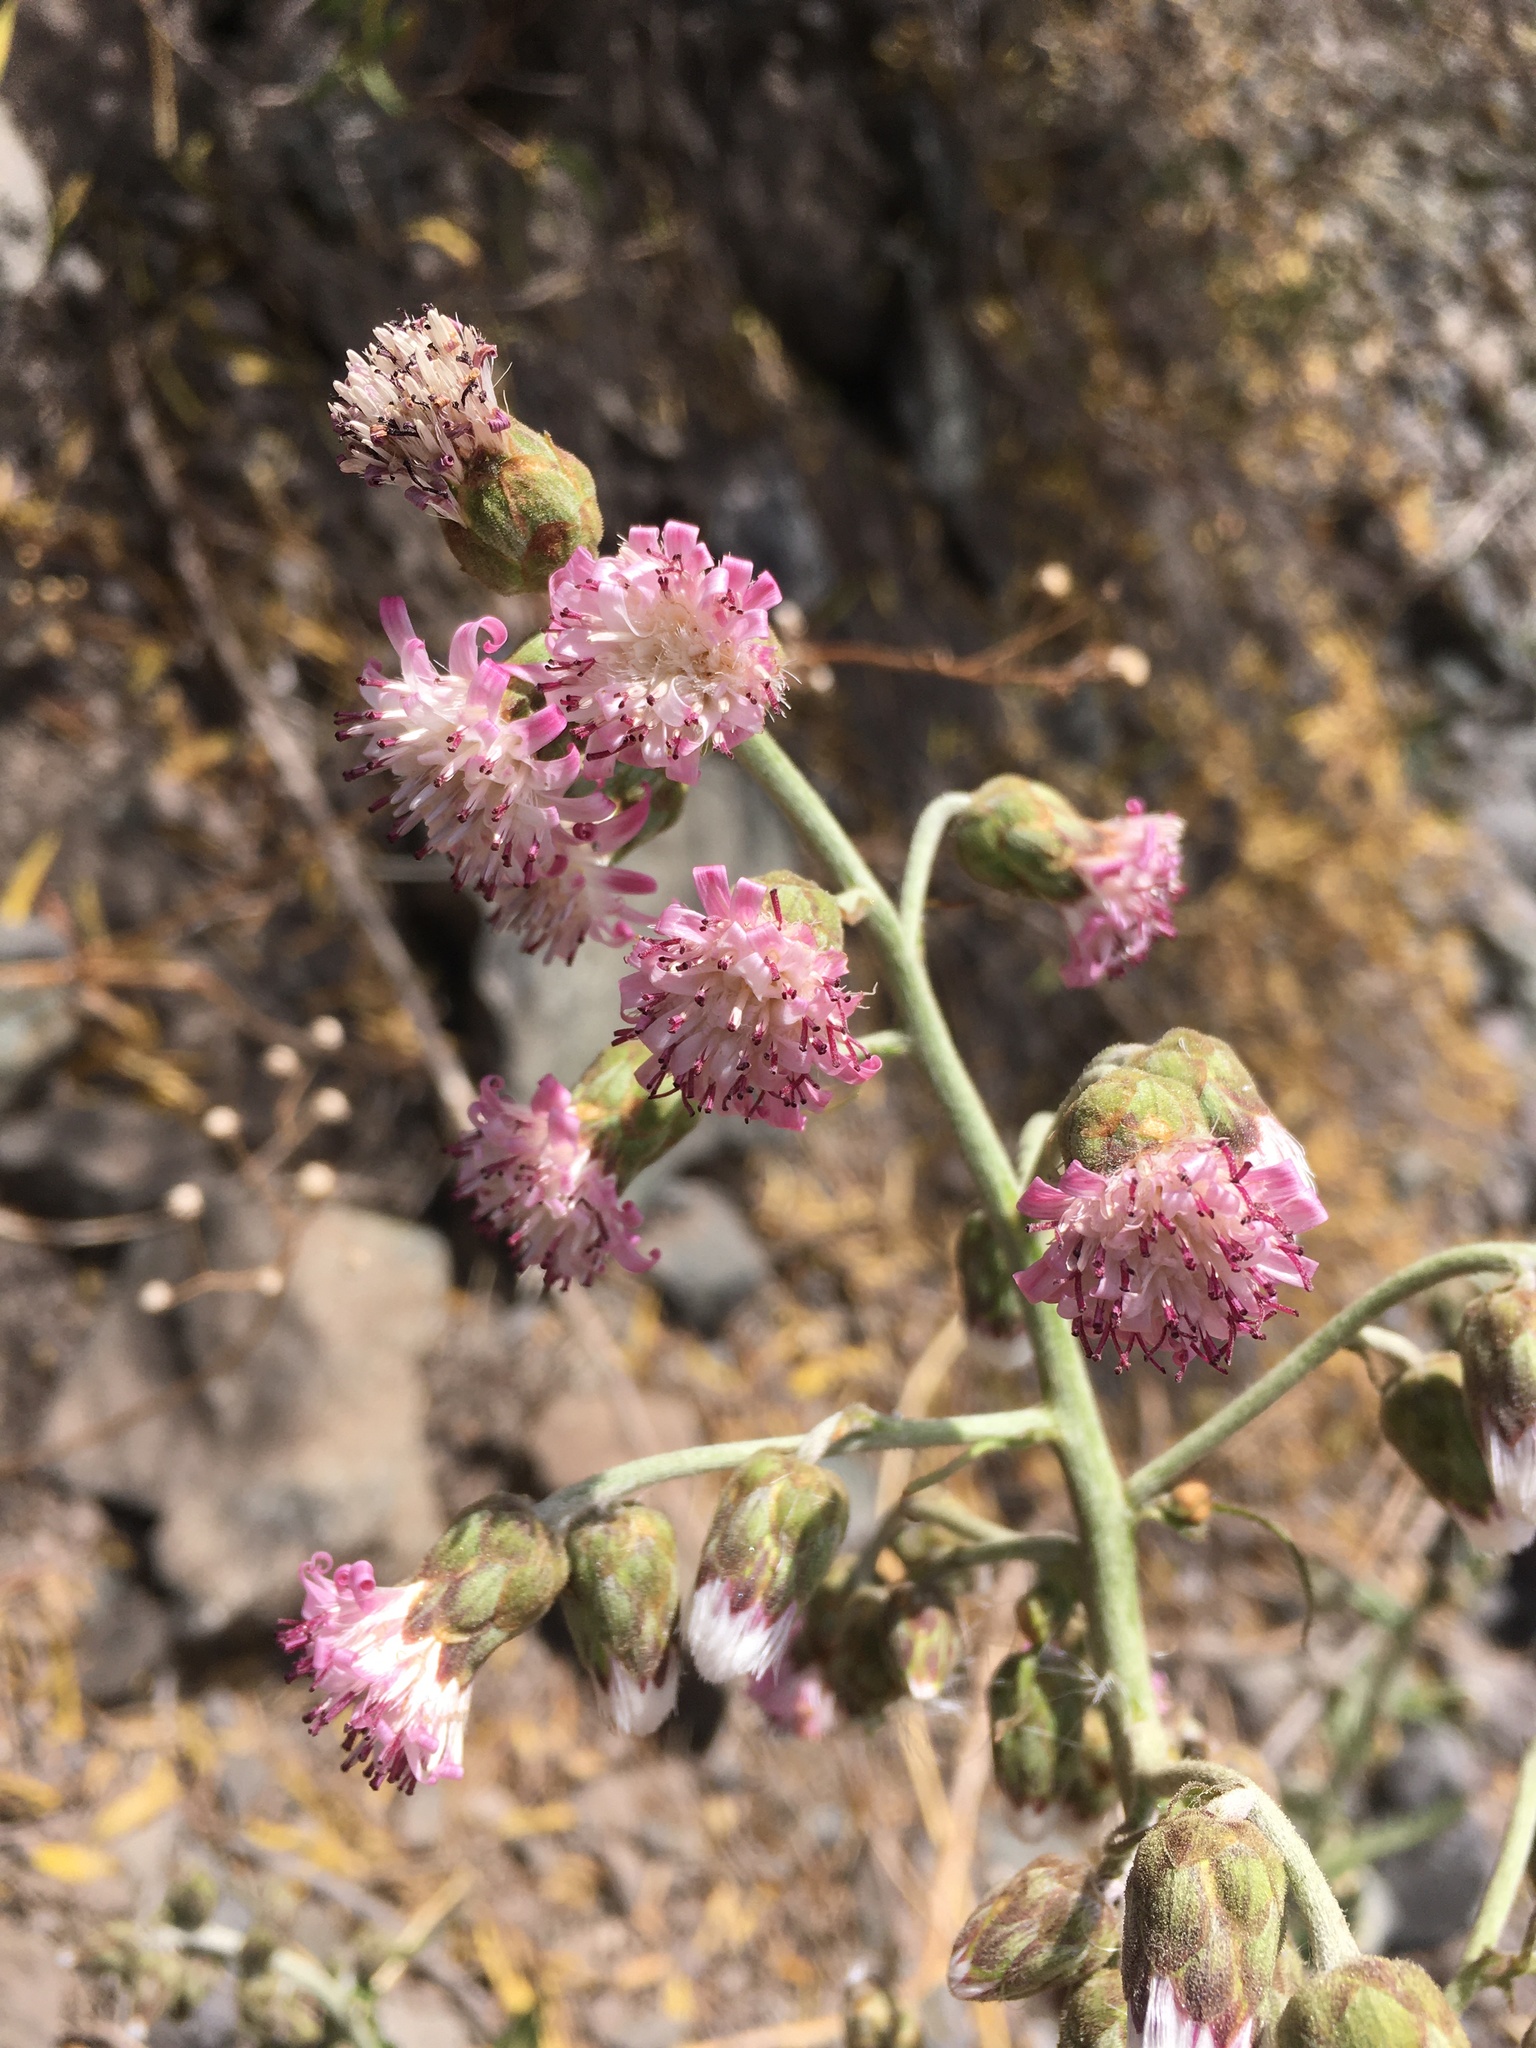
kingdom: Plantae
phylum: Tracheophyta
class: Magnoliopsida
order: Asterales
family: Asteraceae
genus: Leucheria
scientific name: Leucheria floribunda
